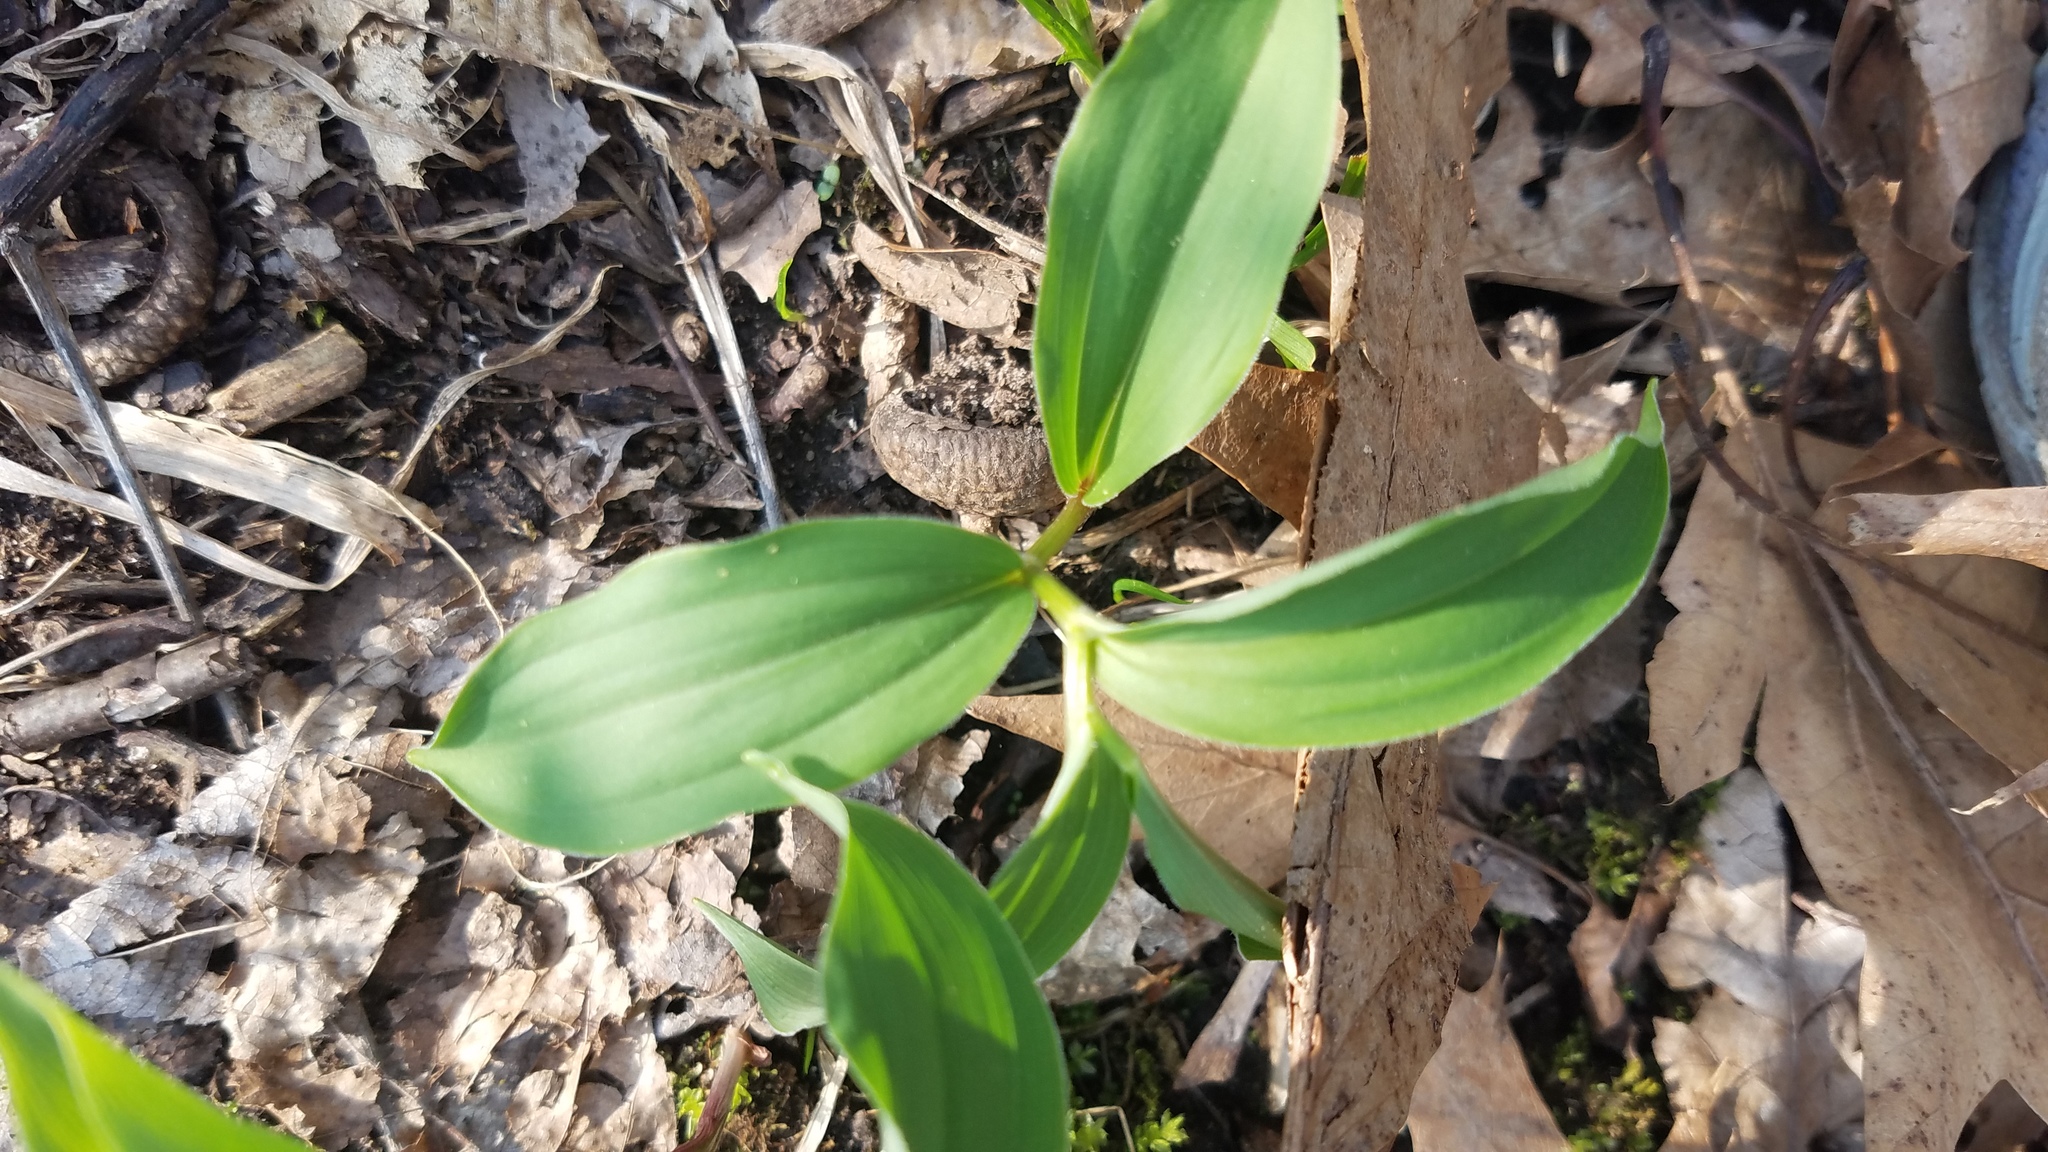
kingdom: Plantae
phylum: Tracheophyta
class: Liliopsida
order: Asparagales
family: Asparagaceae
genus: Maianthemum
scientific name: Maianthemum racemosum
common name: False spikenard
